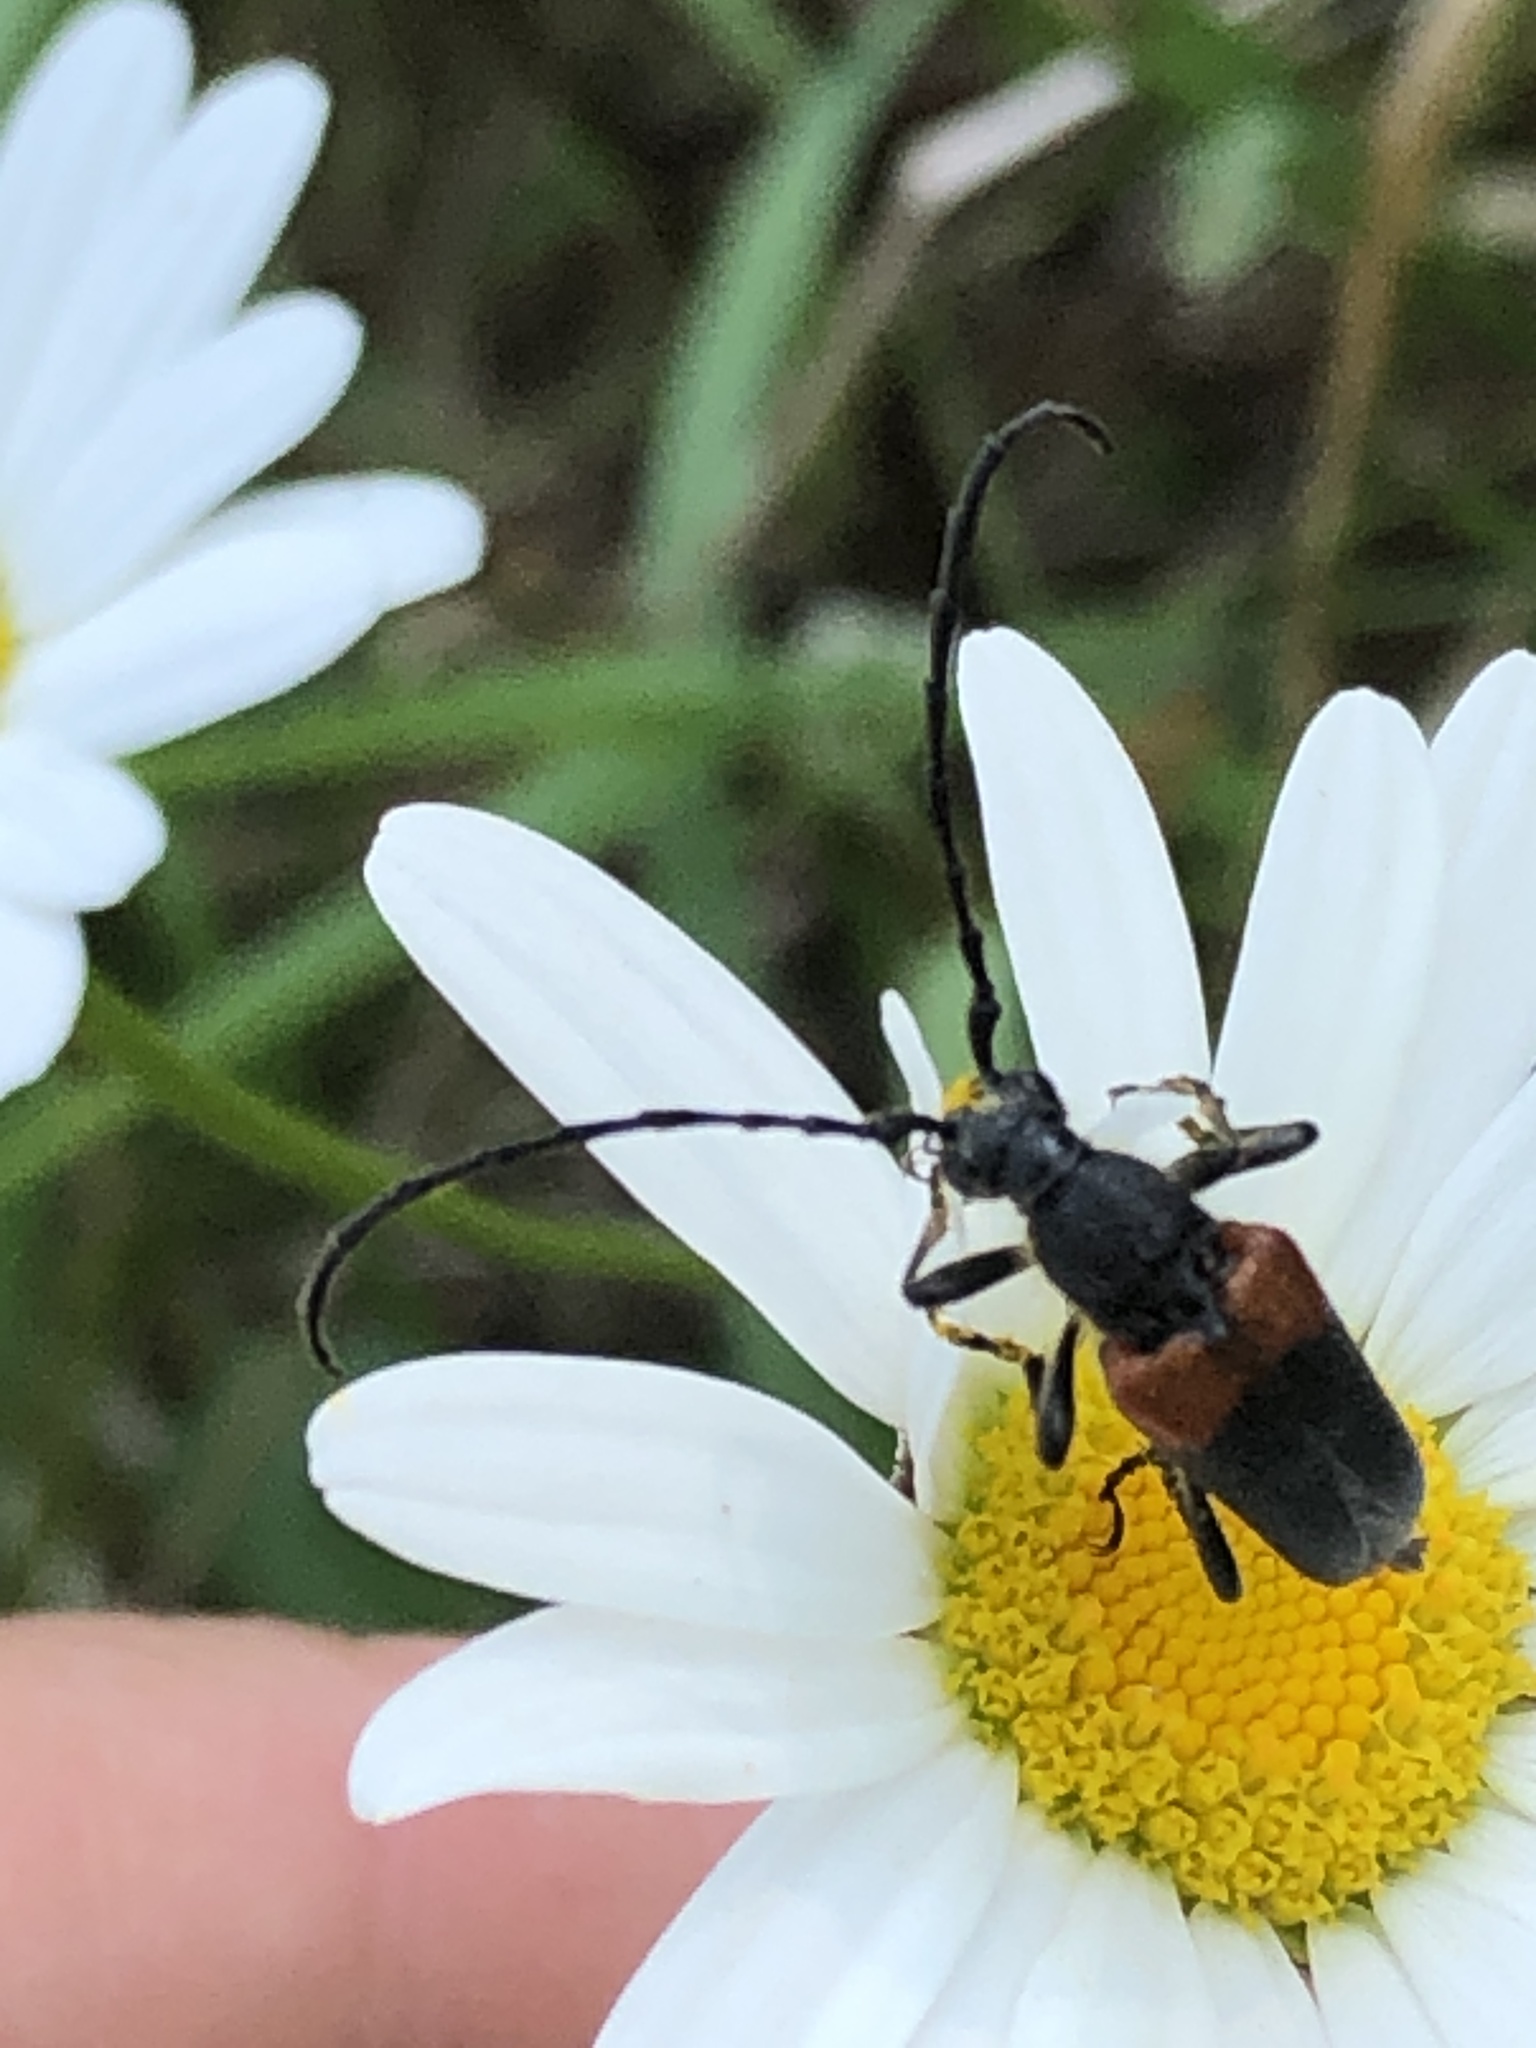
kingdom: Animalia
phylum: Arthropoda
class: Insecta
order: Coleoptera
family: Cerambycidae
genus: Stictoleptura
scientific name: Stictoleptura canadensis
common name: Red-shouldered pine borer
